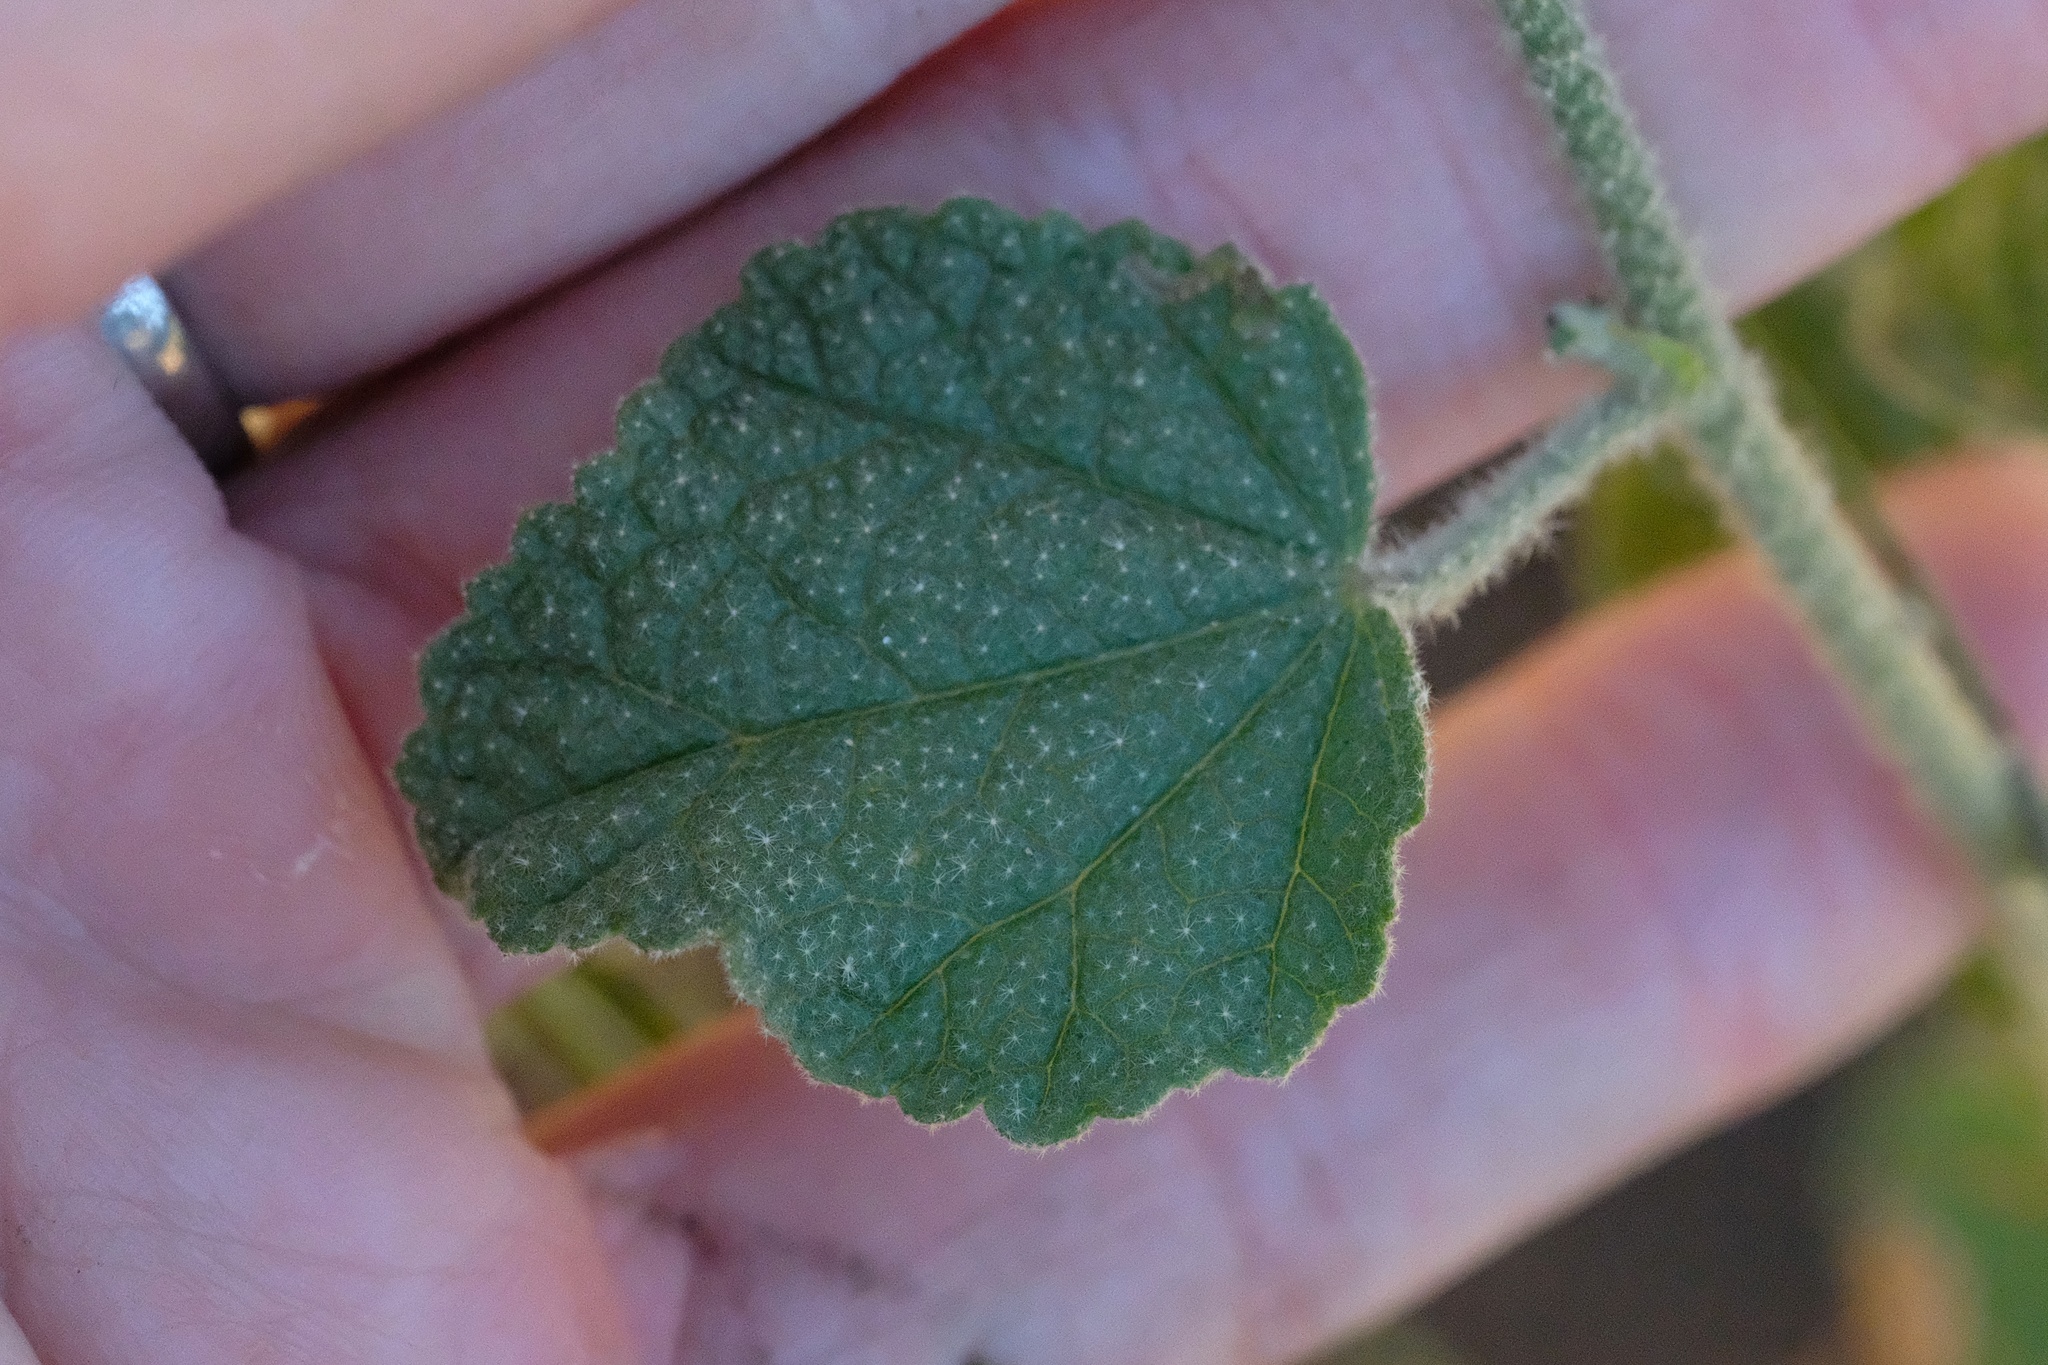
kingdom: Plantae
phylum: Tracheophyta
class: Magnoliopsida
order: Malvales
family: Malvaceae
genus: Malacothamnus
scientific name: Malacothamnus densiflorus
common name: Yellow-stem bush-mallow
